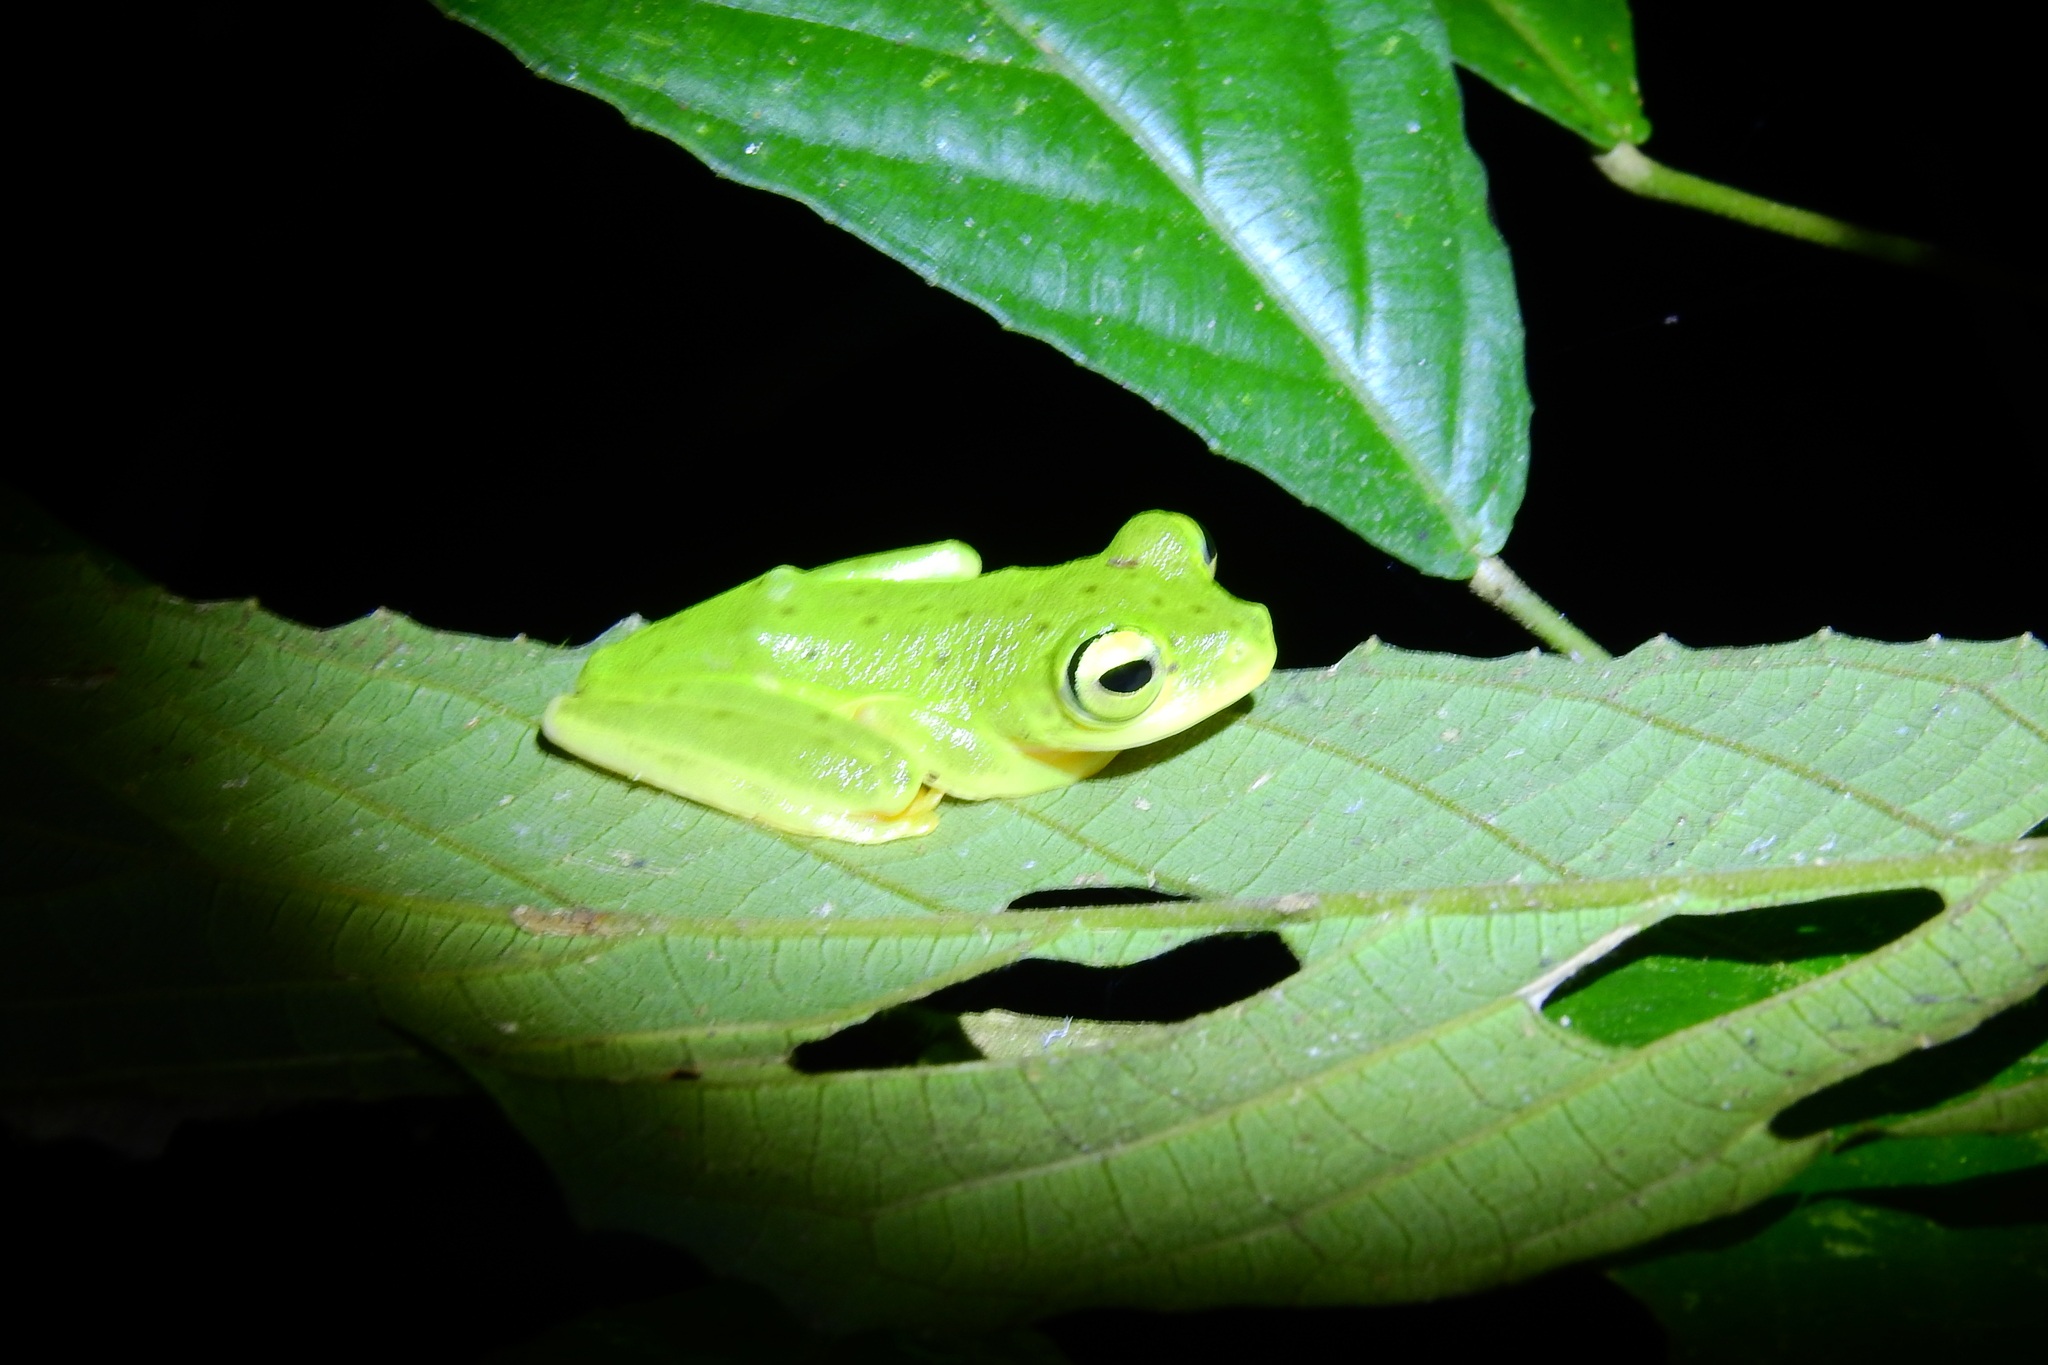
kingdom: Animalia
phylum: Chordata
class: Amphibia
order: Anura
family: Rhacophoridae
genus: Rhacophorus
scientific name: Rhacophorus edentulus
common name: Celebes flying frog
